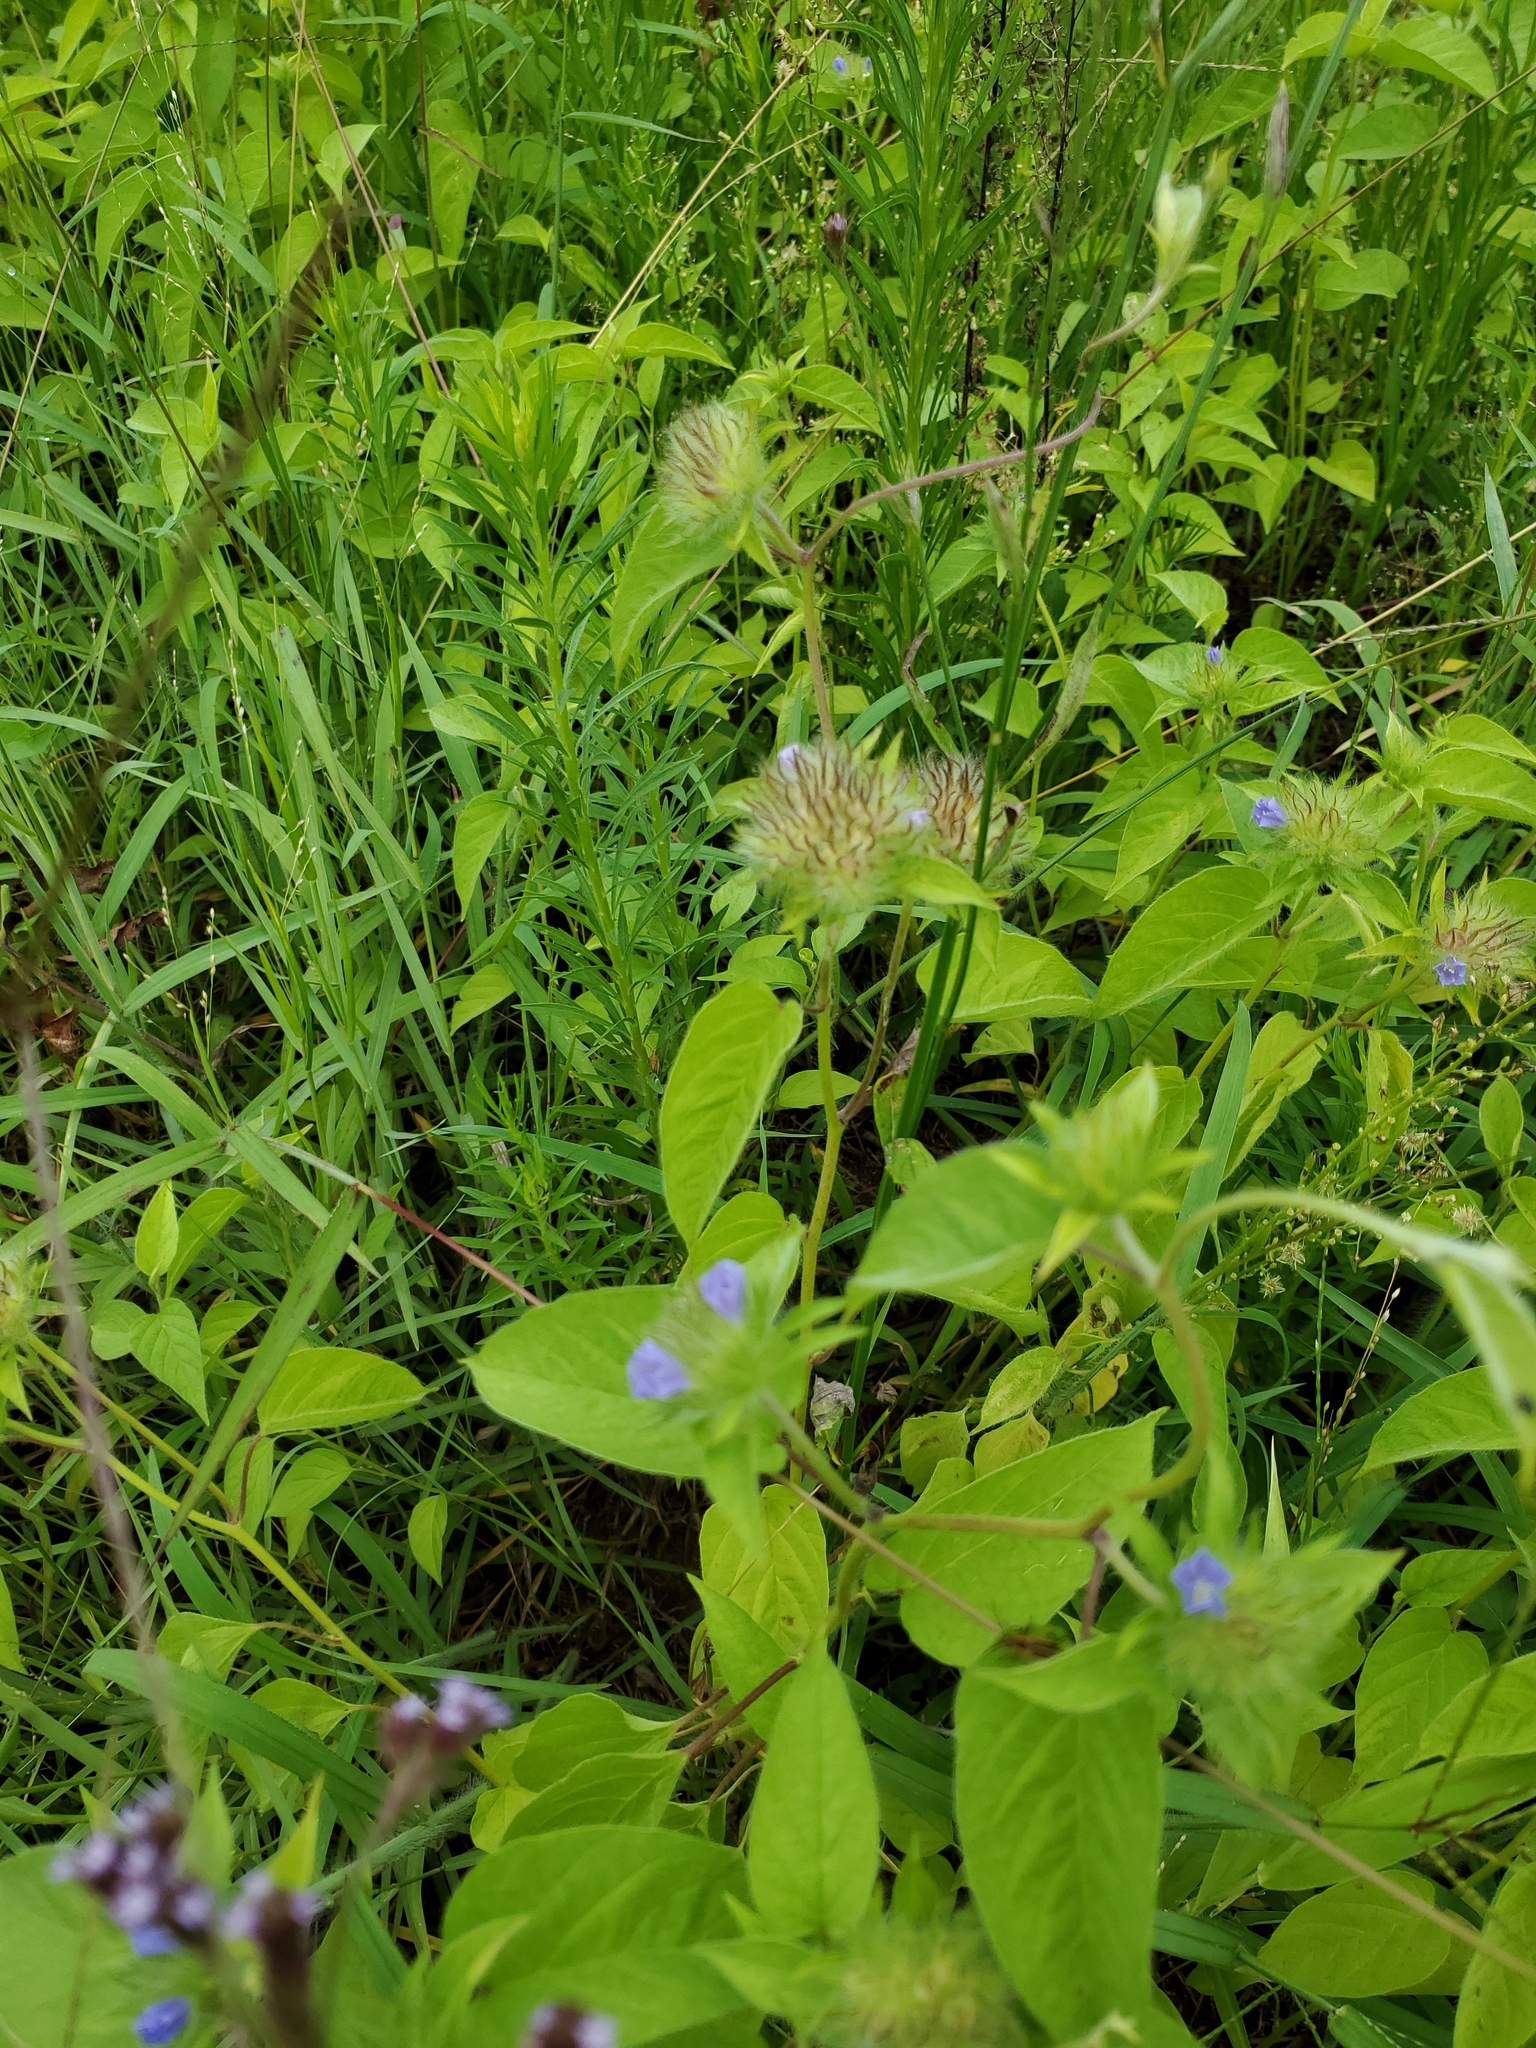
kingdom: Plantae
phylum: Tracheophyta
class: Magnoliopsida
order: Solanales
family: Convolvulaceae
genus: Jacquemontia
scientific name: Jacquemontia tamnifolia
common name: Hairy clustervine
